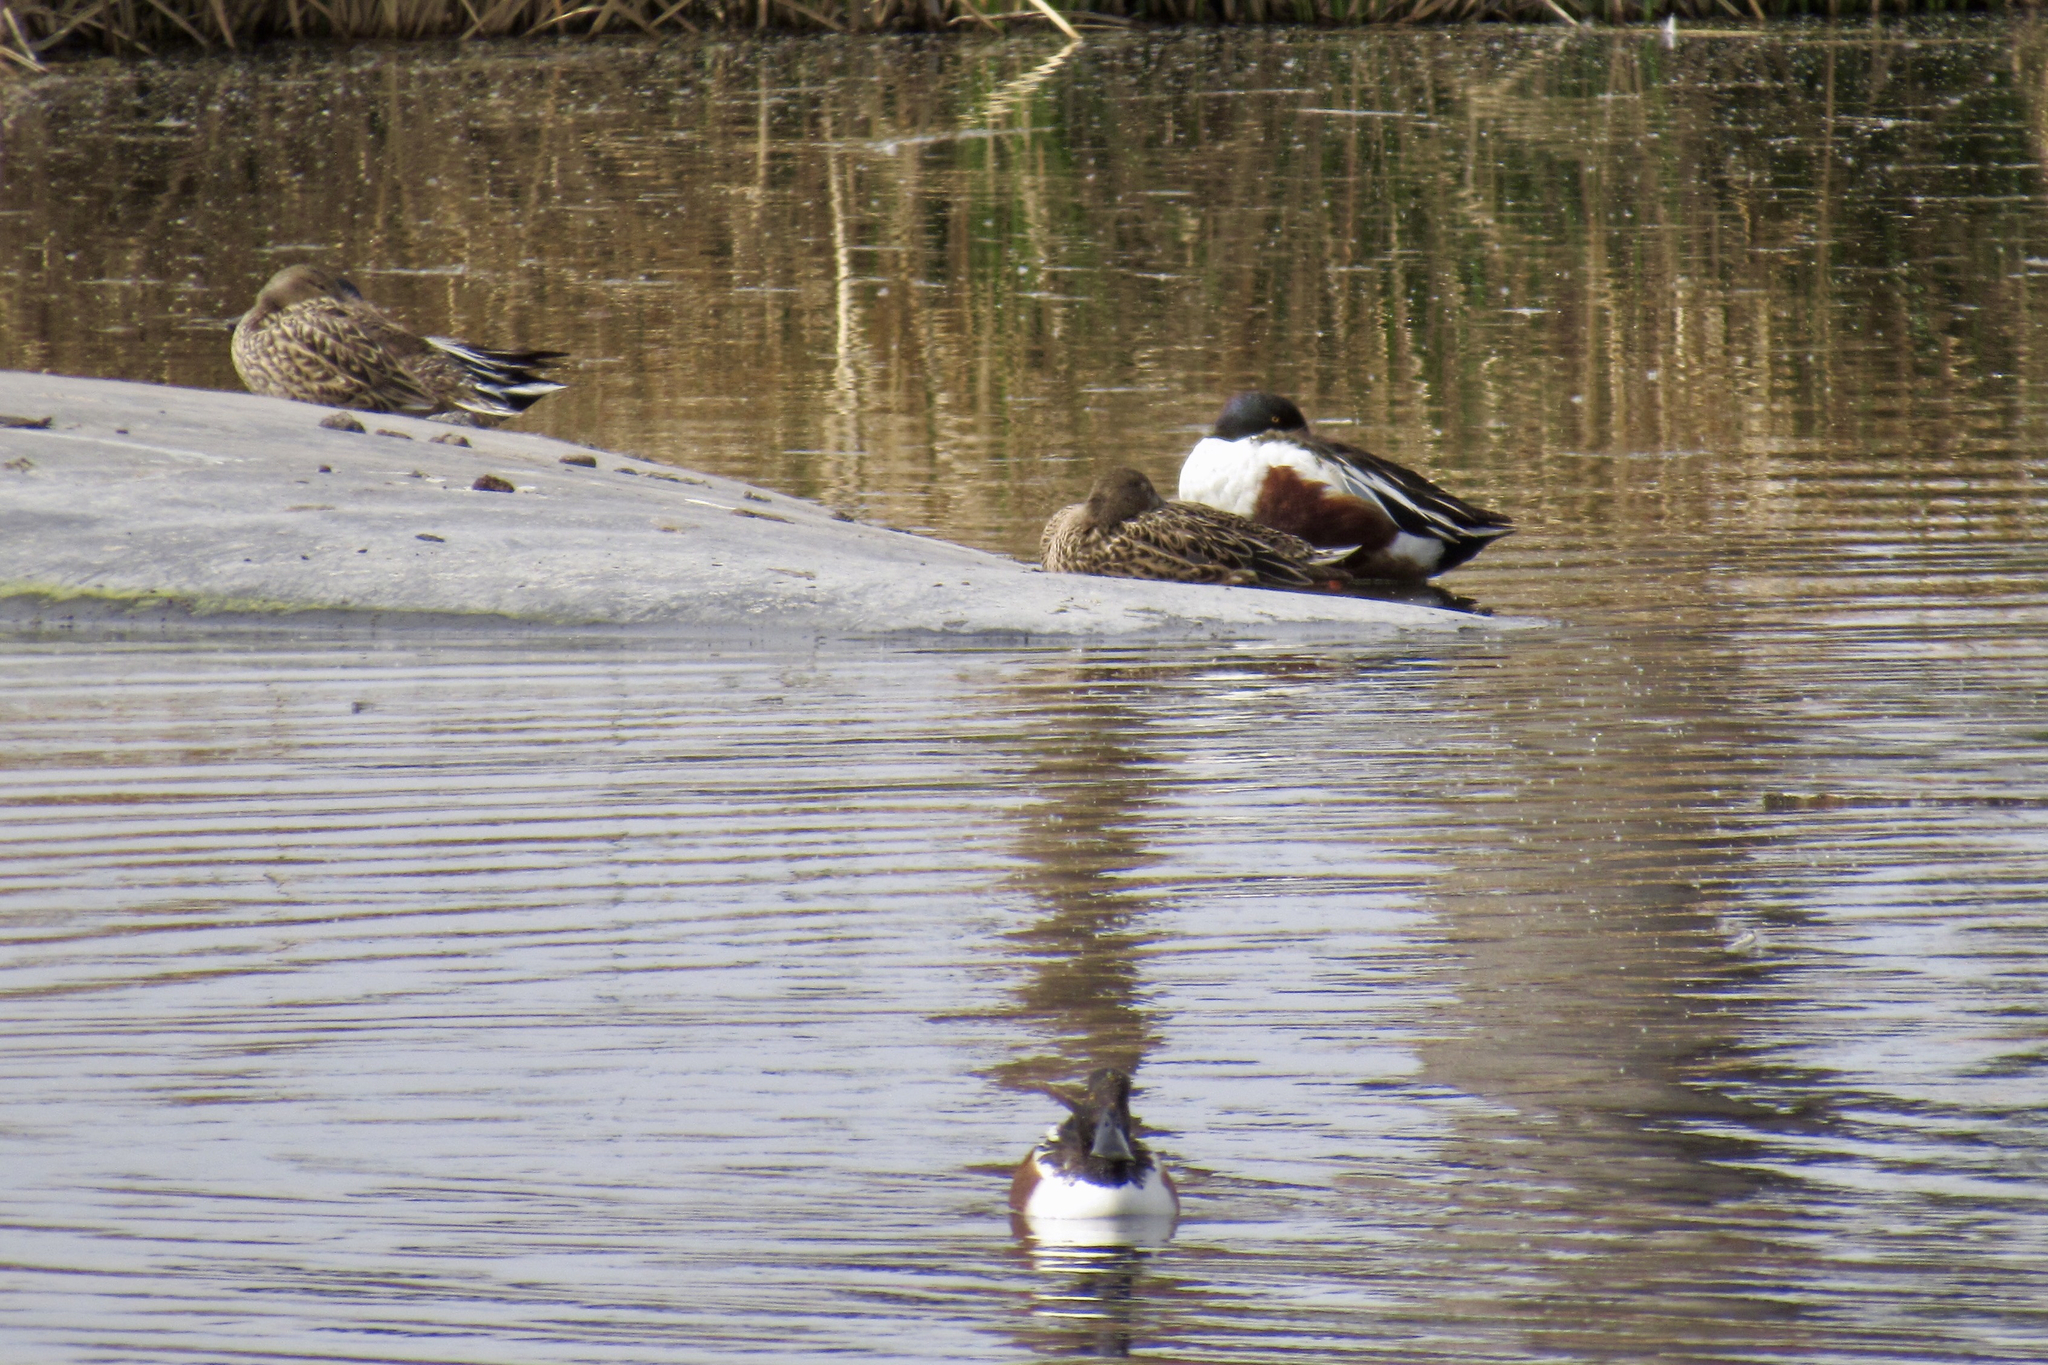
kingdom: Animalia
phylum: Chordata
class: Aves
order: Anseriformes
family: Anatidae
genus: Spatula
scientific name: Spatula clypeata
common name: Northern shoveler
